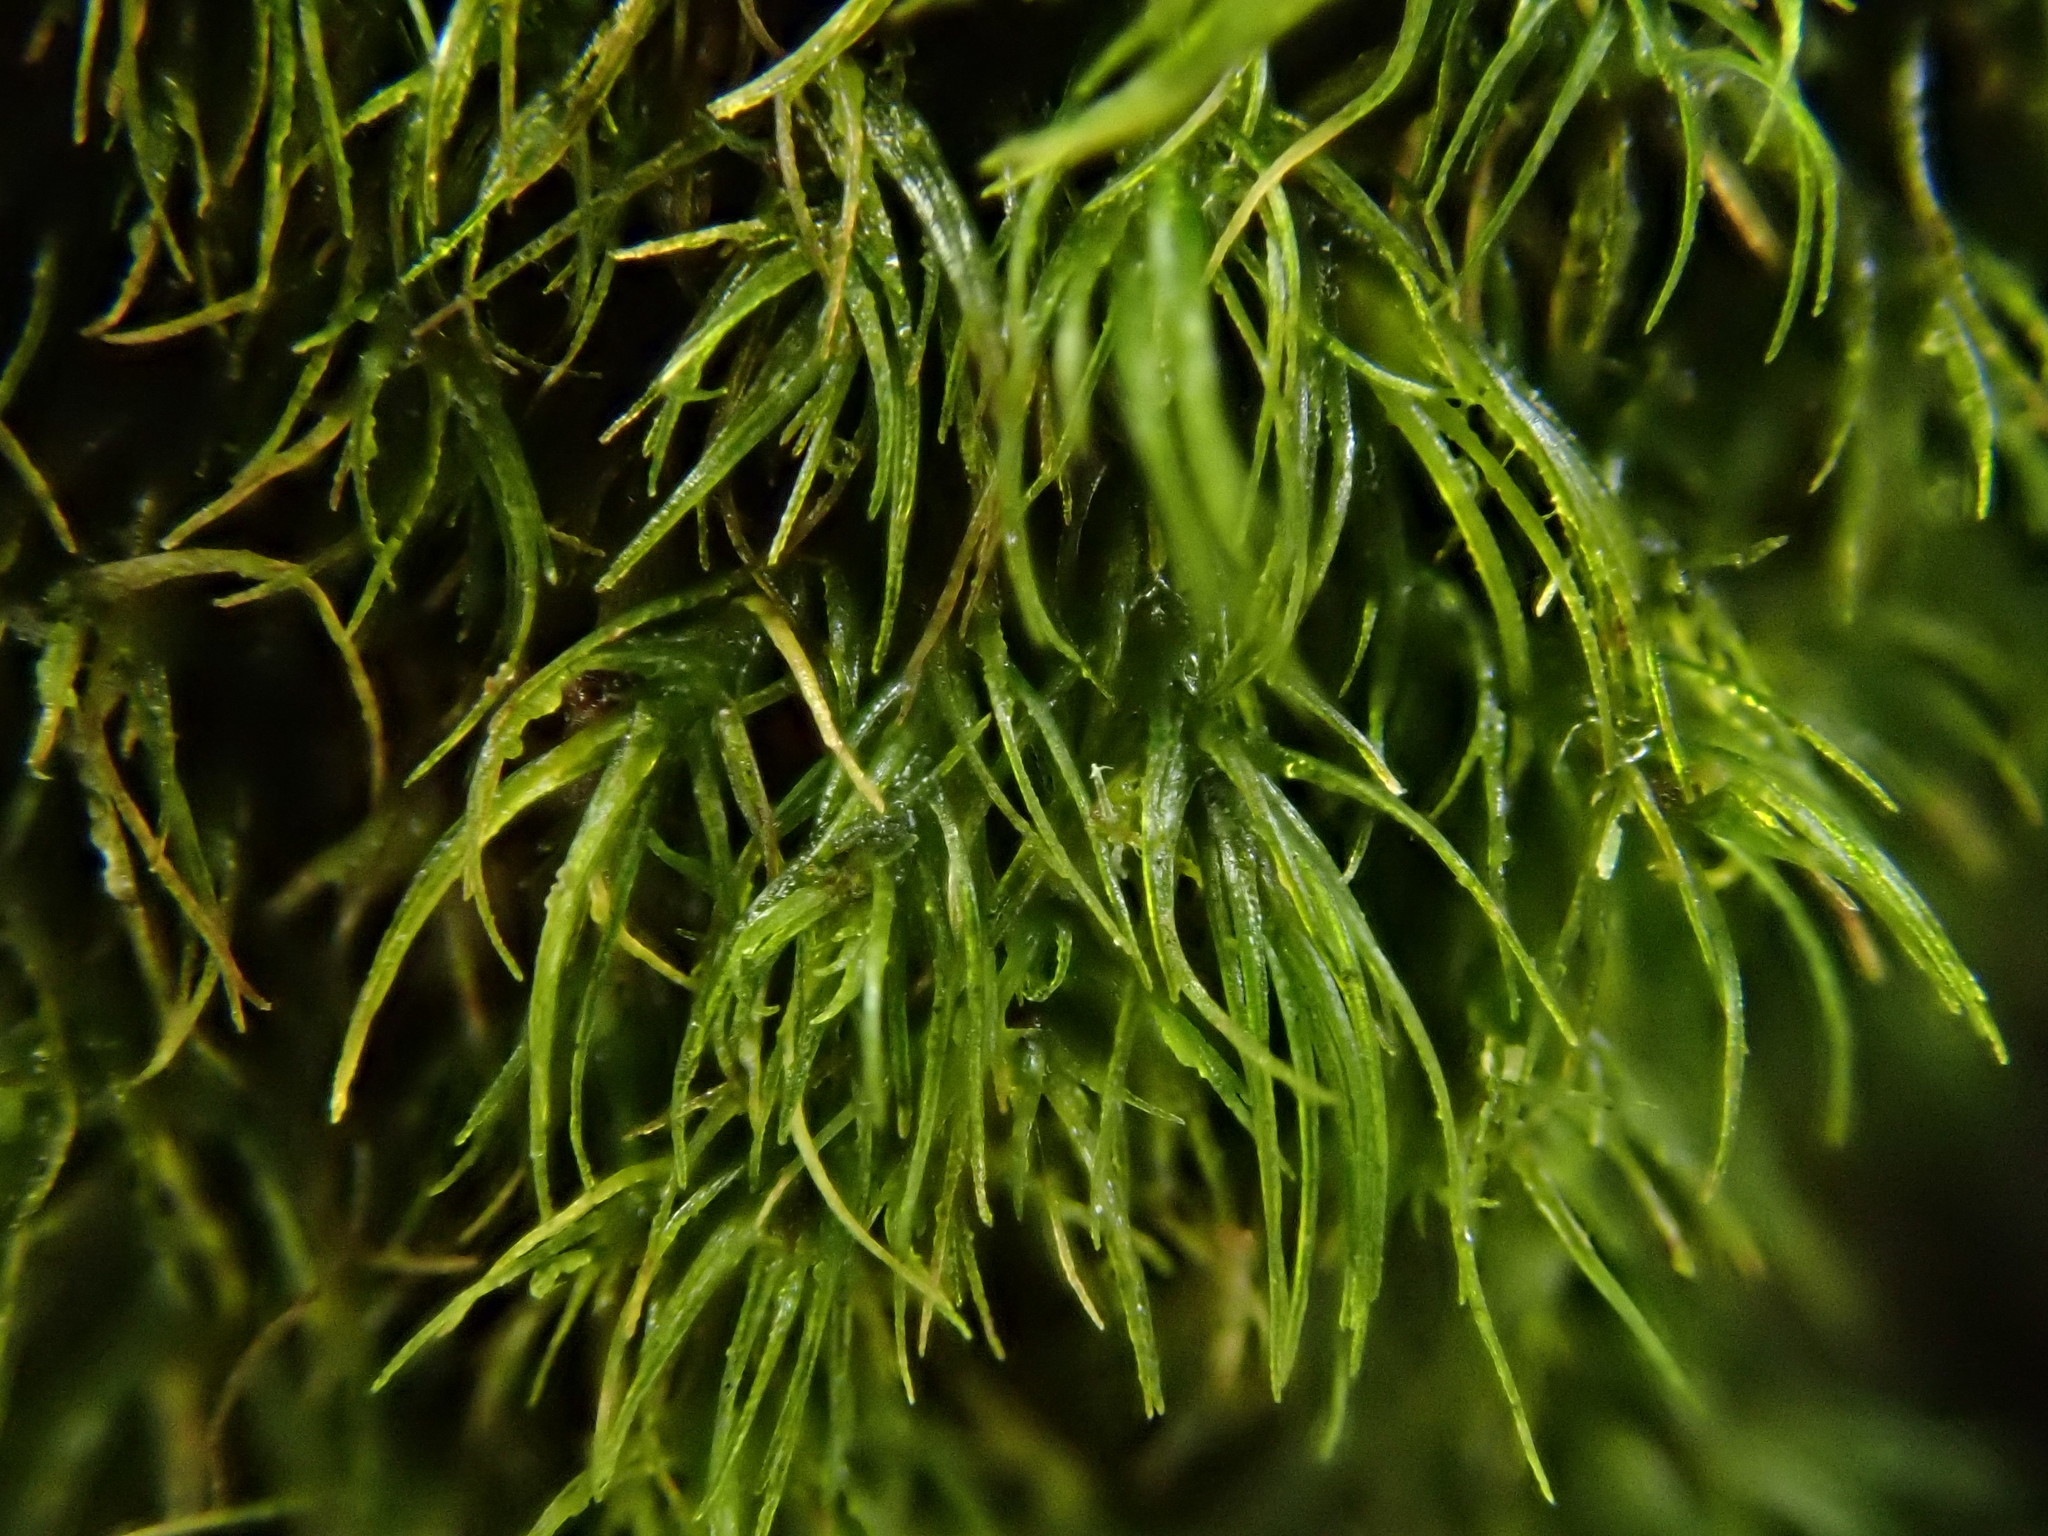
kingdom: Plantae
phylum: Bryophyta
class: Bryopsida
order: Dicranales
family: Dicranellaceae
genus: Dicranella
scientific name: Dicranella heteromalla
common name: Silky forklet moss
